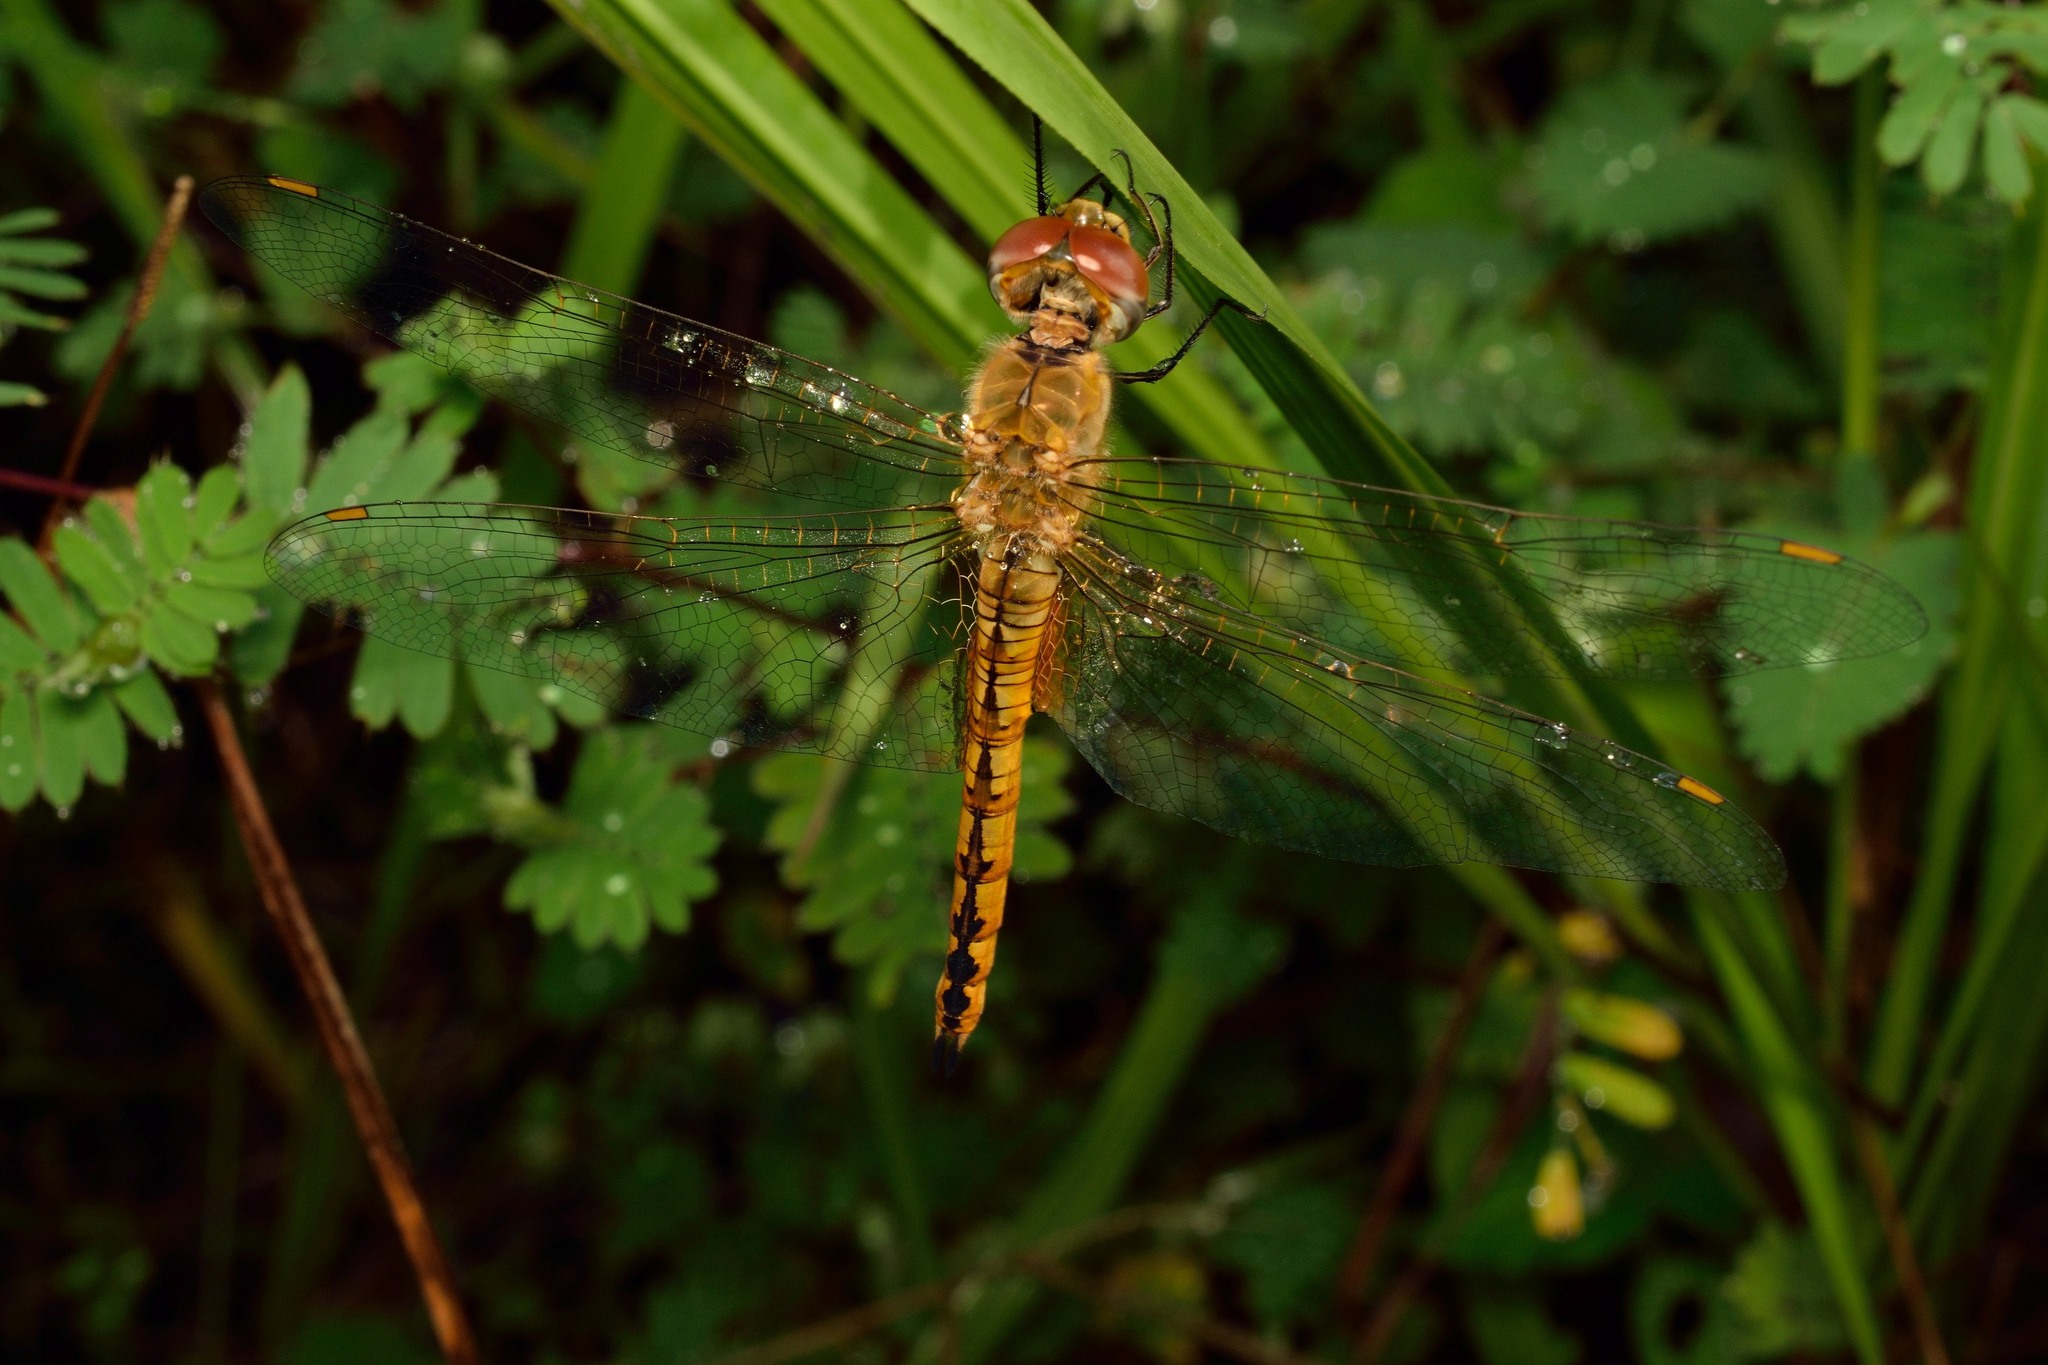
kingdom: Animalia
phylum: Arthropoda
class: Insecta
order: Odonata
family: Libellulidae
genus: Pantala
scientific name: Pantala flavescens
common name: Wandering glider
